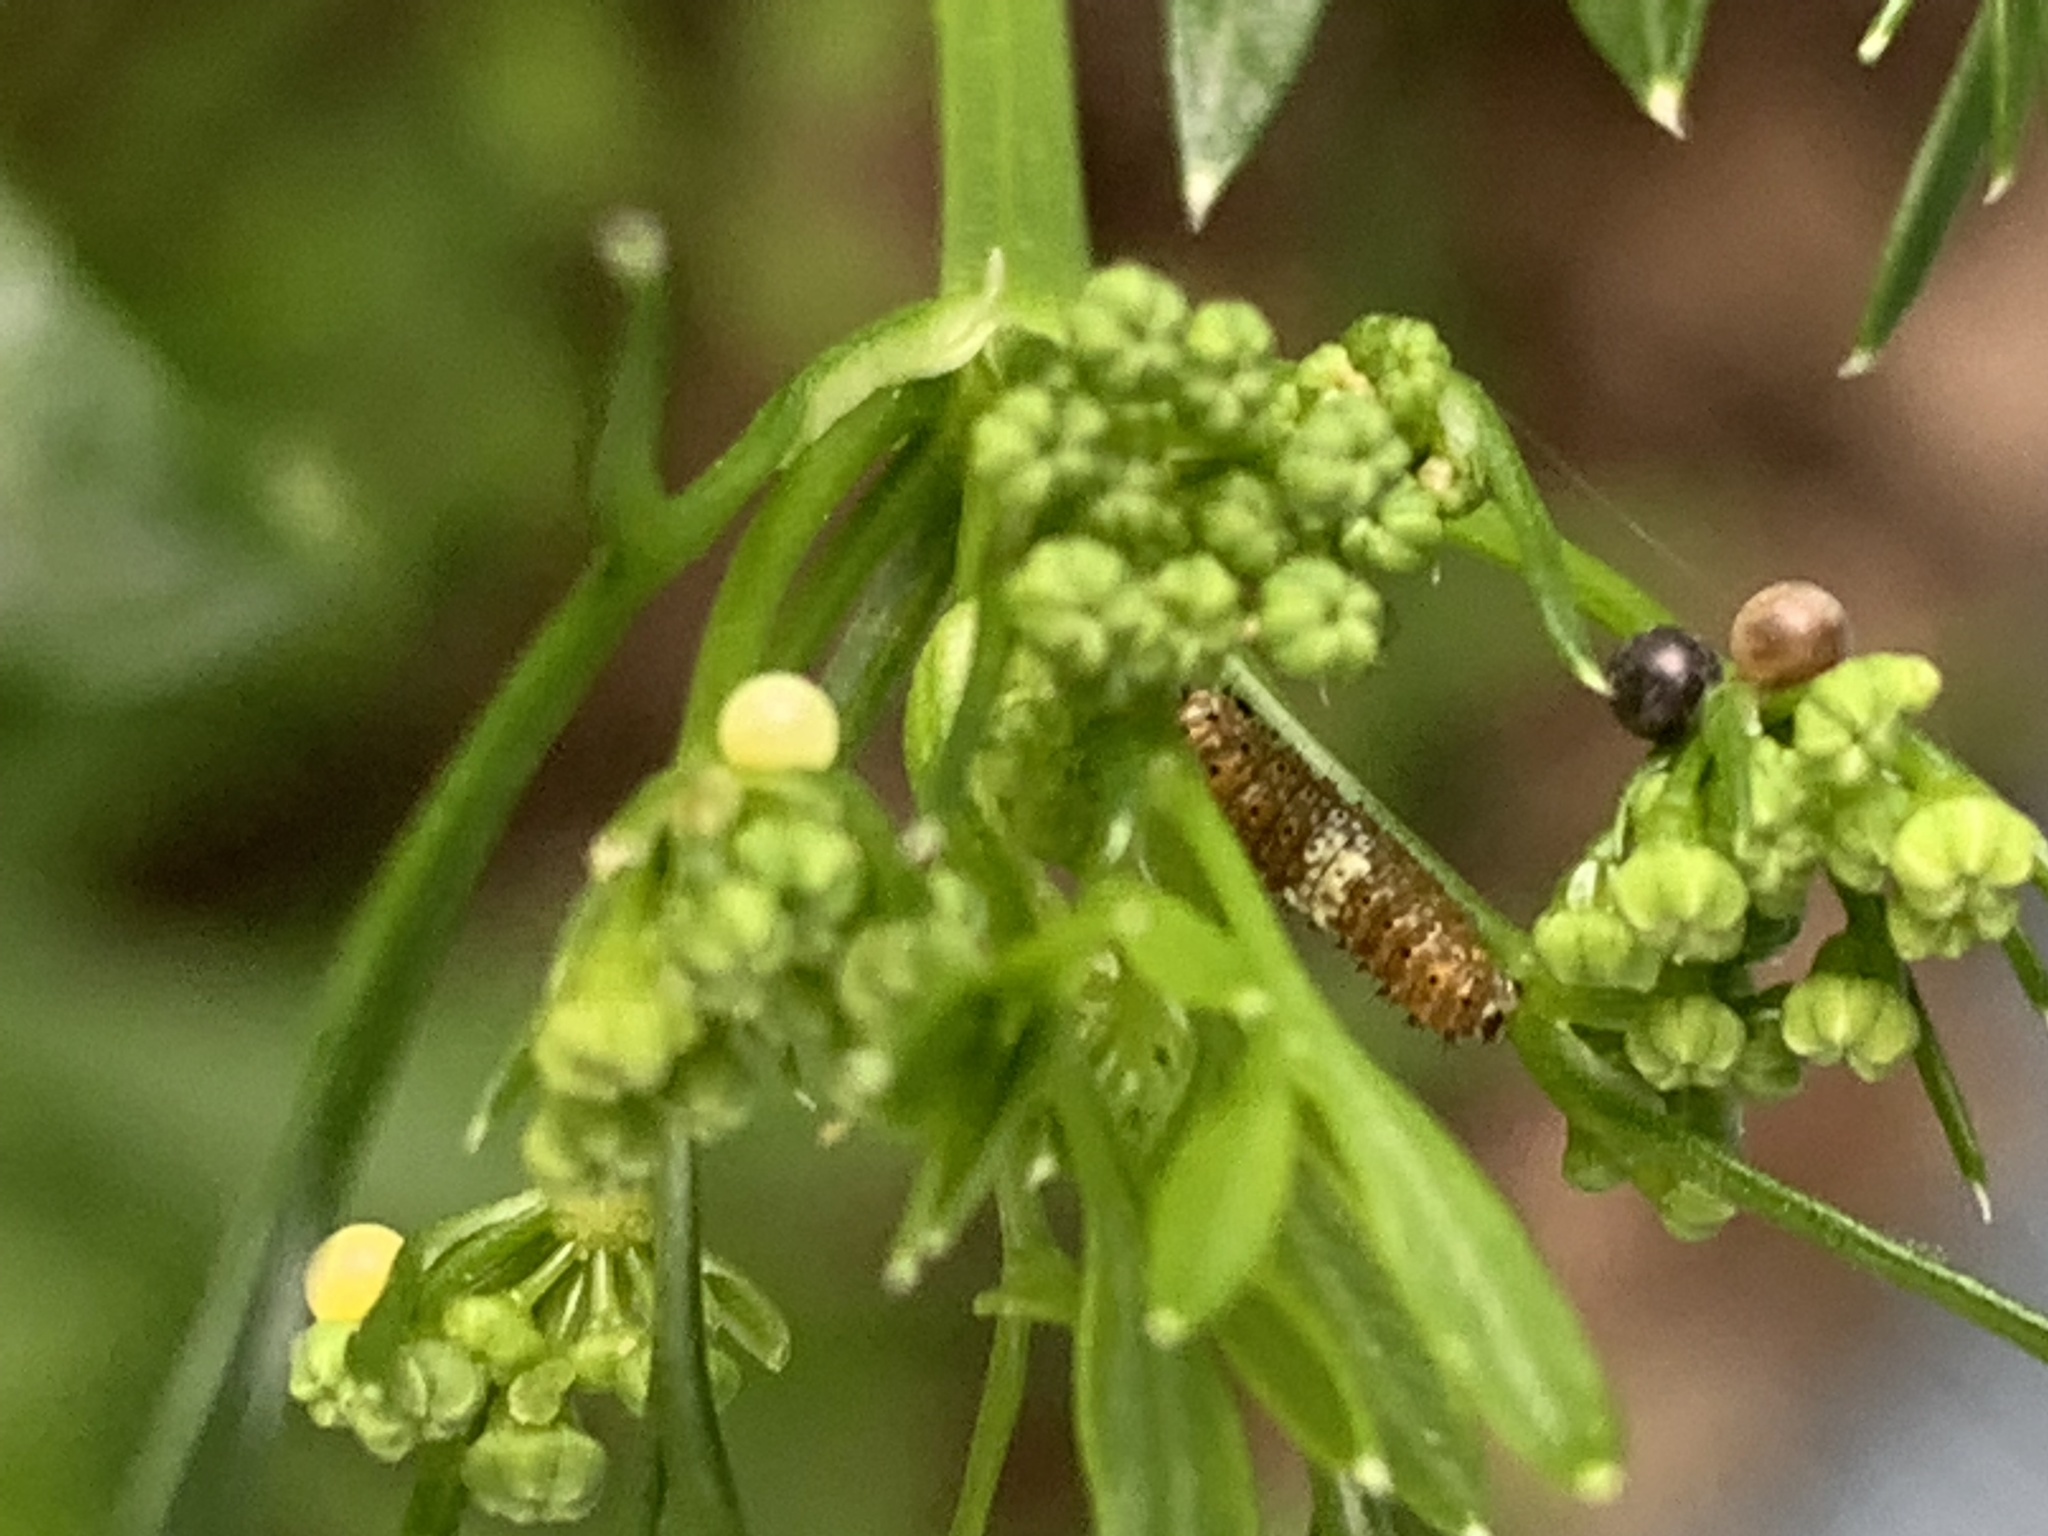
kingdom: Animalia
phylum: Arthropoda
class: Insecta
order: Lepidoptera
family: Papilionidae
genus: Papilio
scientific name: Papilio polyxenes
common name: Black swallowtail
